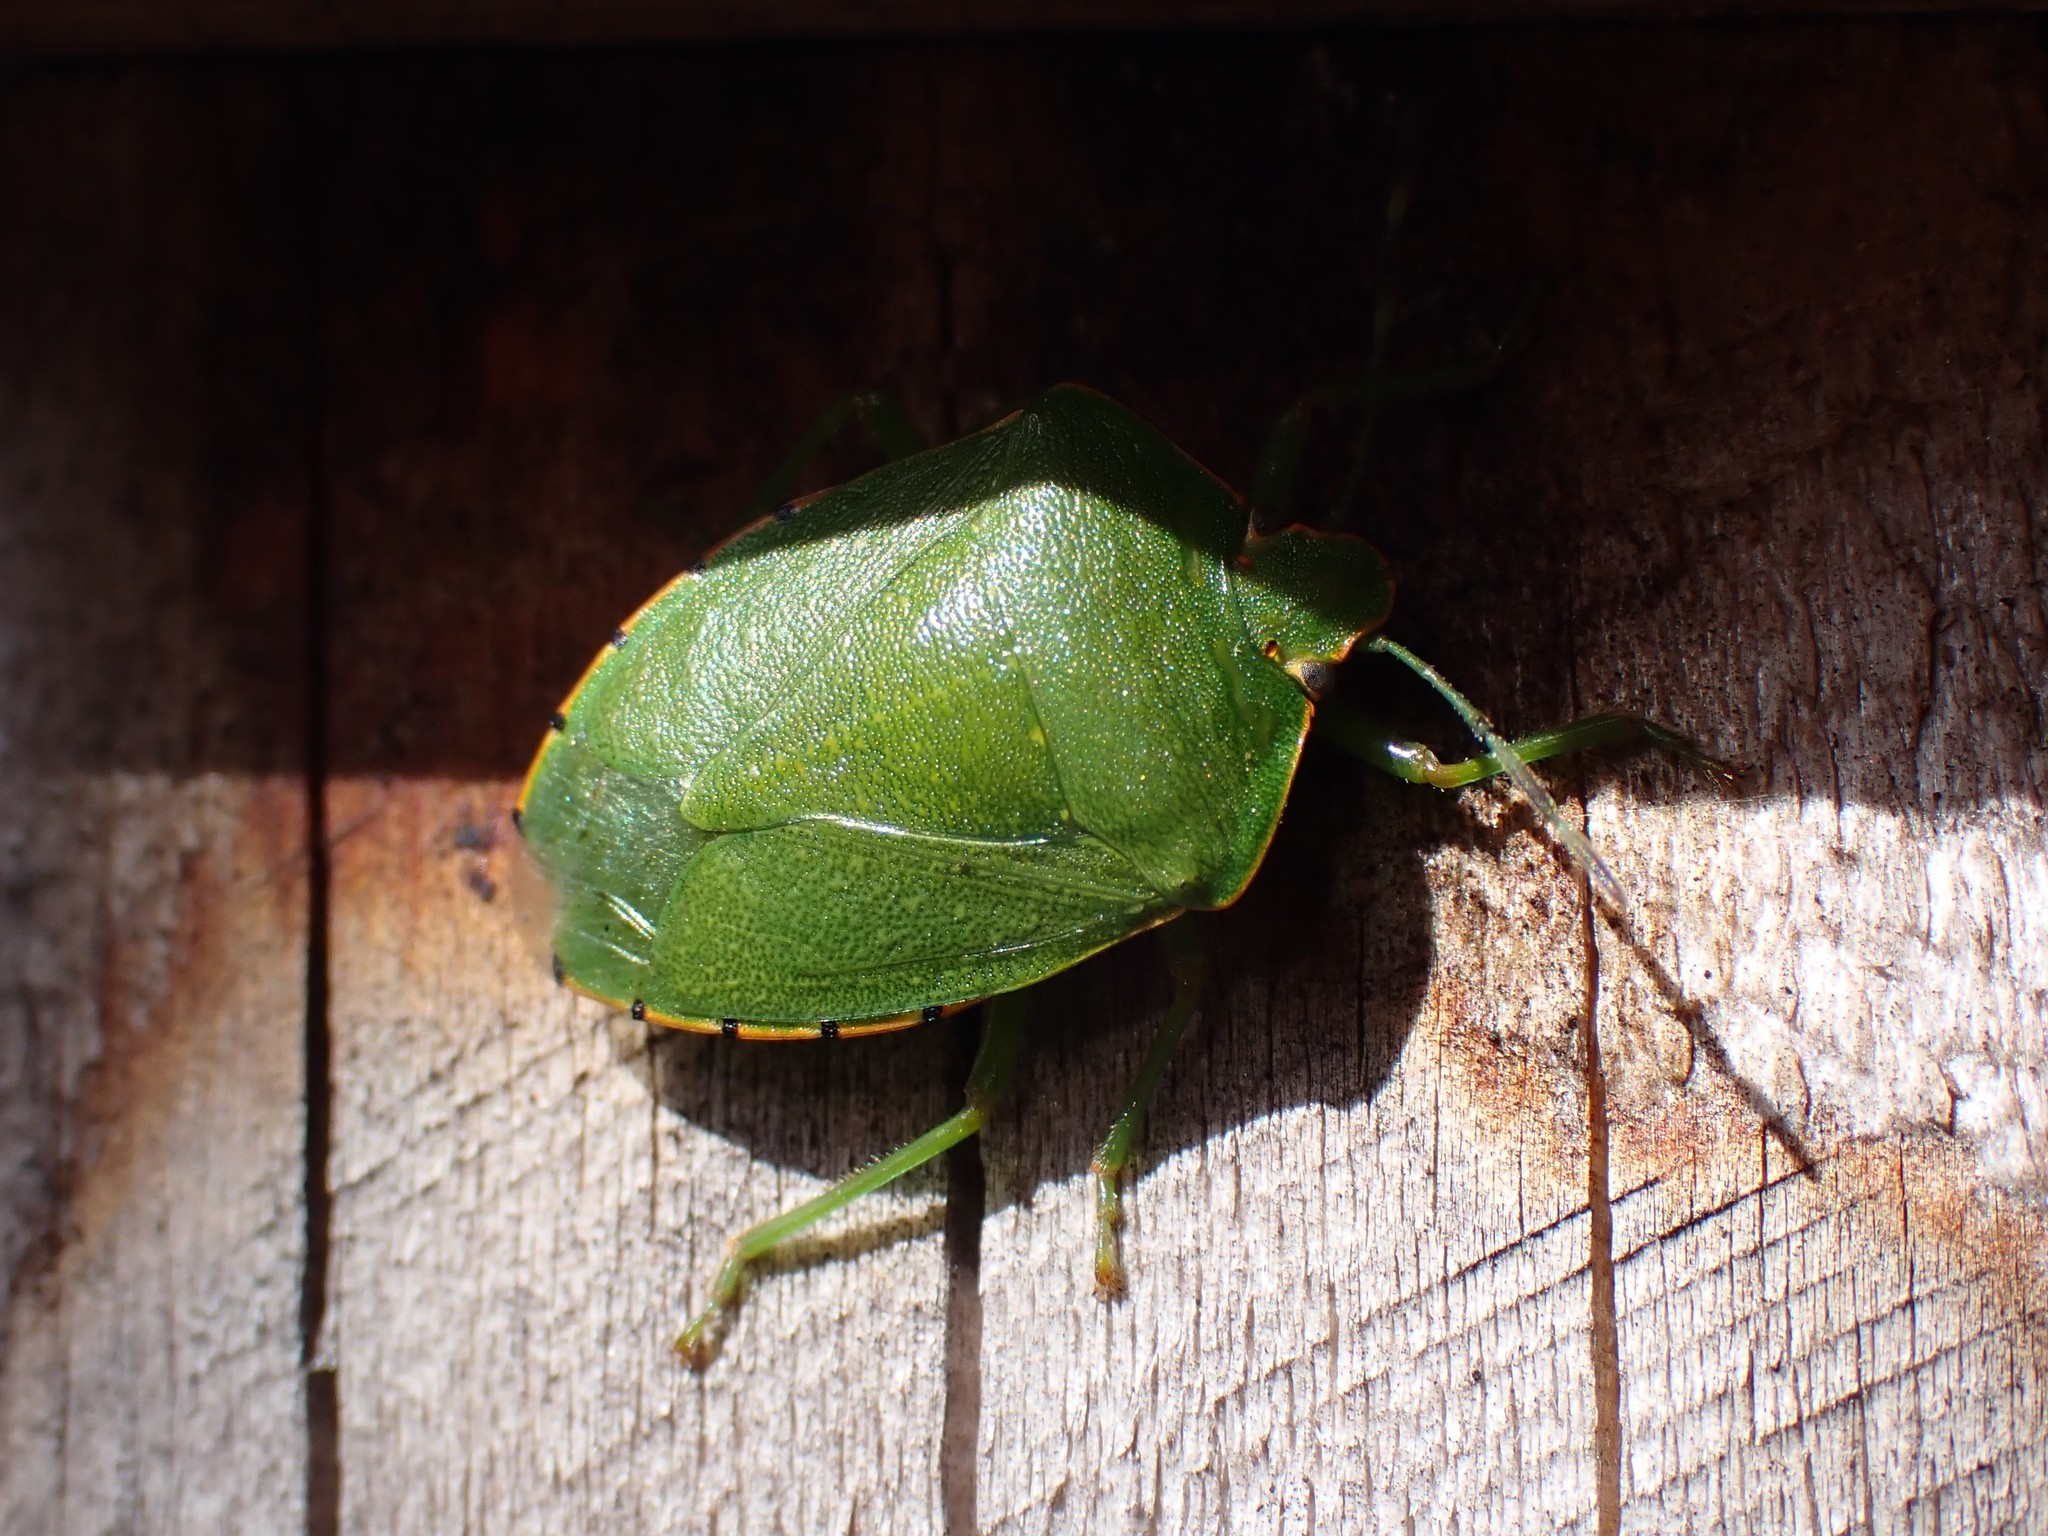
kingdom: Animalia
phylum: Arthropoda
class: Insecta
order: Hemiptera
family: Pentatomidae
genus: Chinavia
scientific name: Chinavia hilaris
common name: Green stink bug
